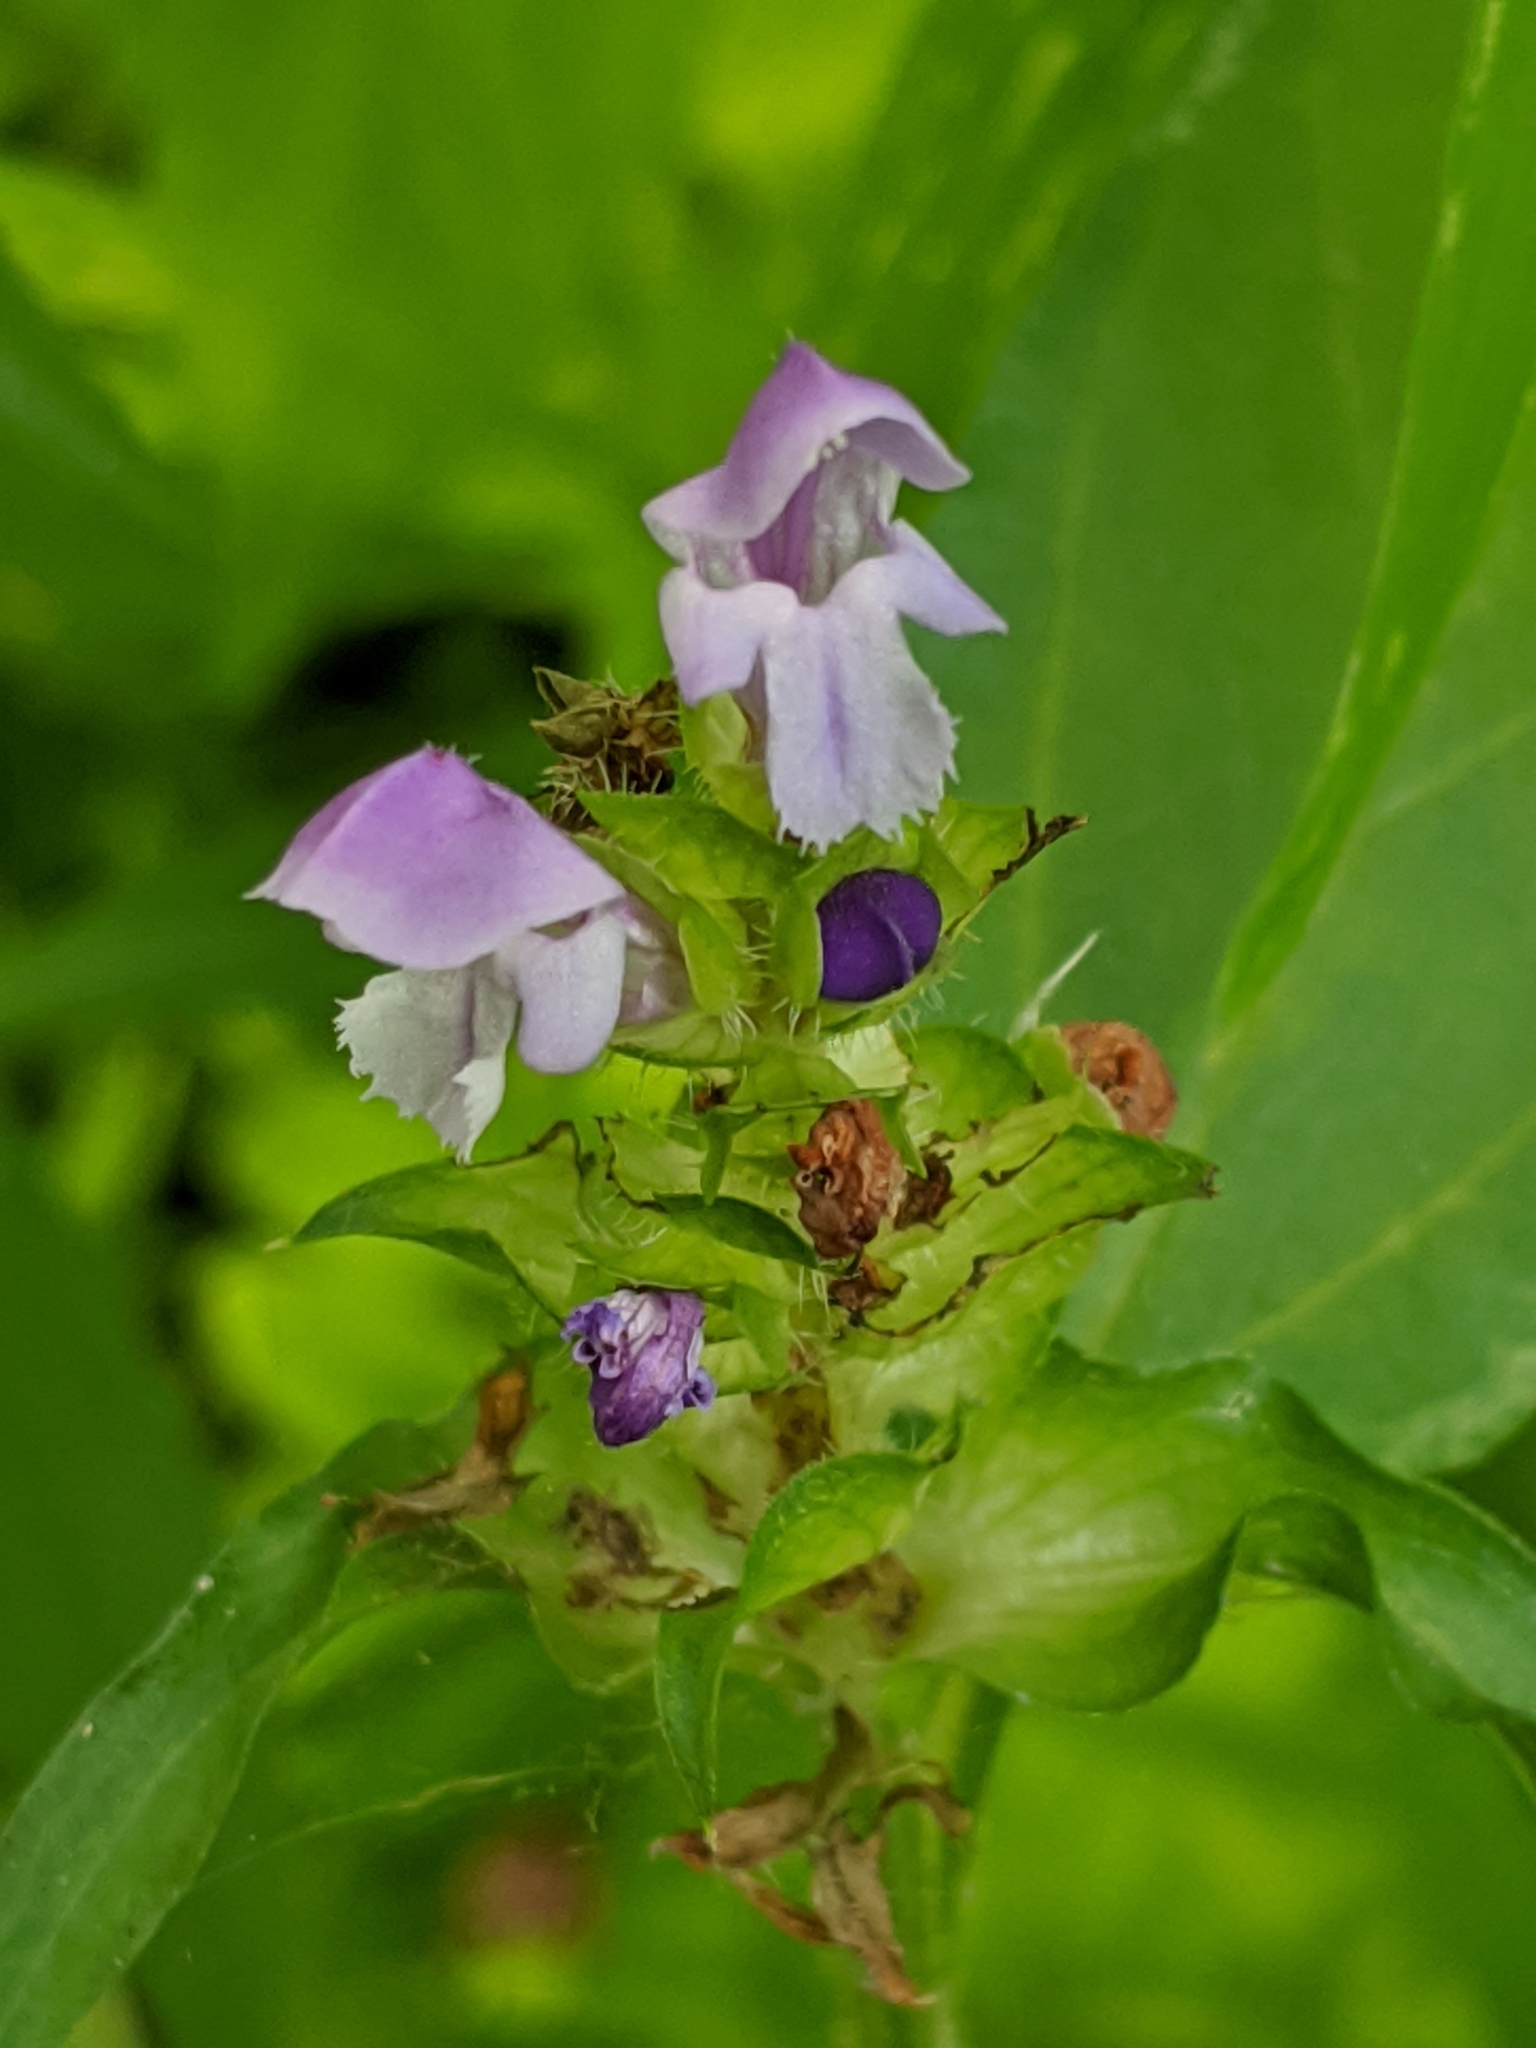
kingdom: Plantae
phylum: Tracheophyta
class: Magnoliopsida
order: Lamiales
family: Lamiaceae
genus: Prunella
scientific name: Prunella vulgaris
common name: Heal-all
